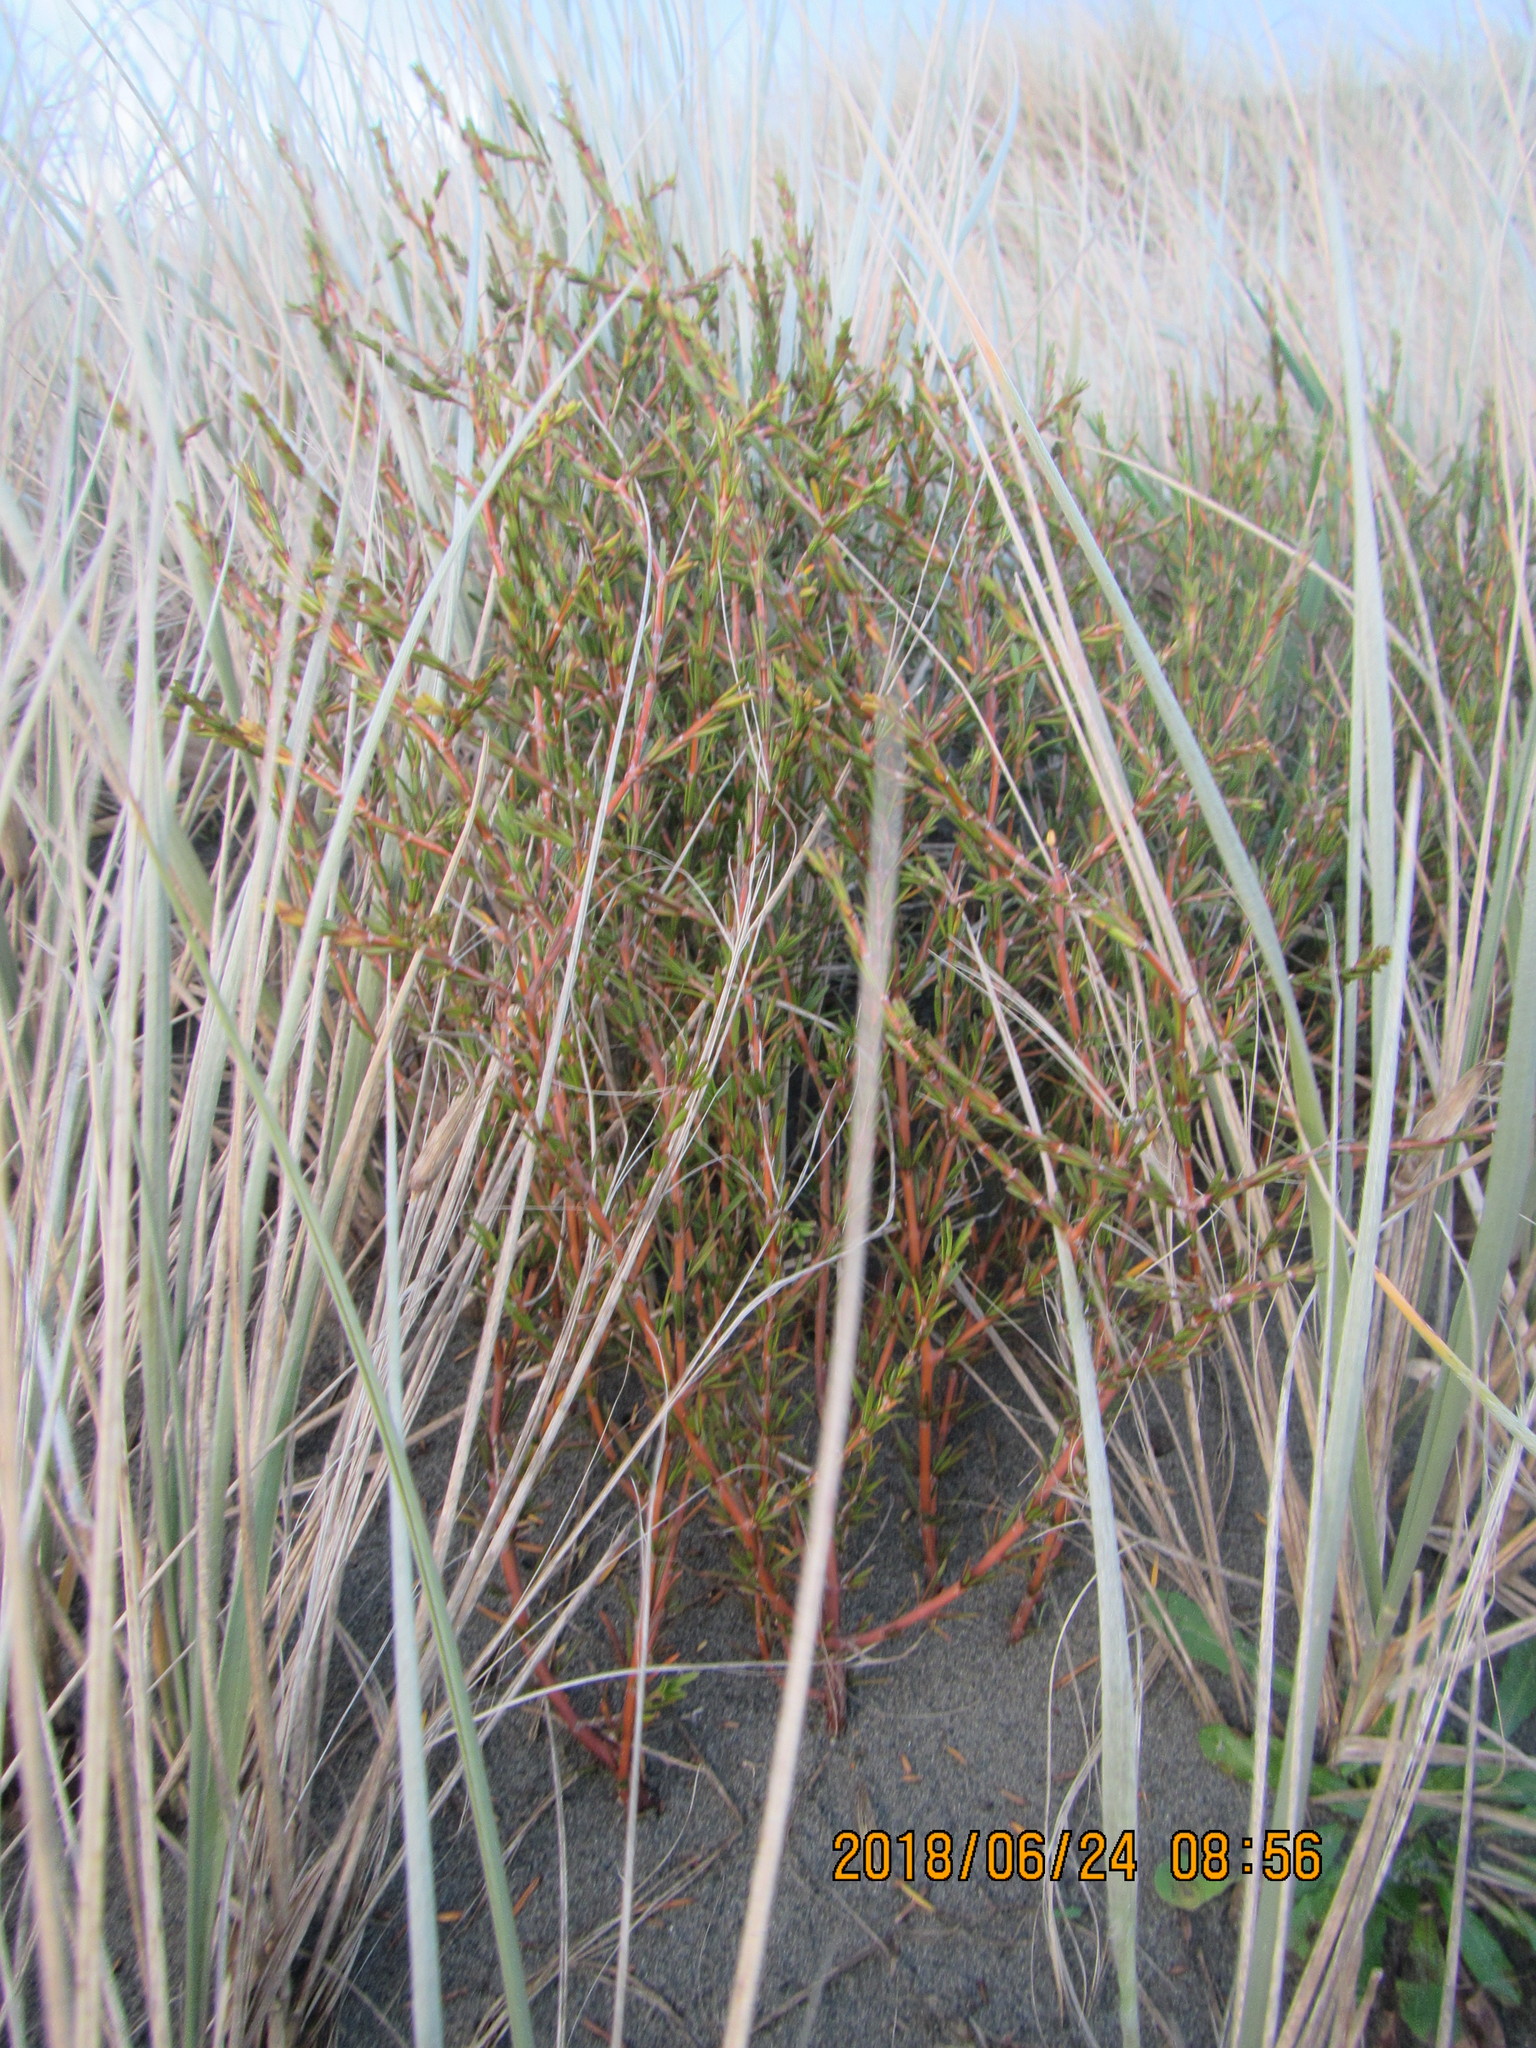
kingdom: Plantae
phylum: Tracheophyta
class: Magnoliopsida
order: Gentianales
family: Rubiaceae
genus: Coprosma
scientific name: Coprosma acerosa
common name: Sand coprosma
